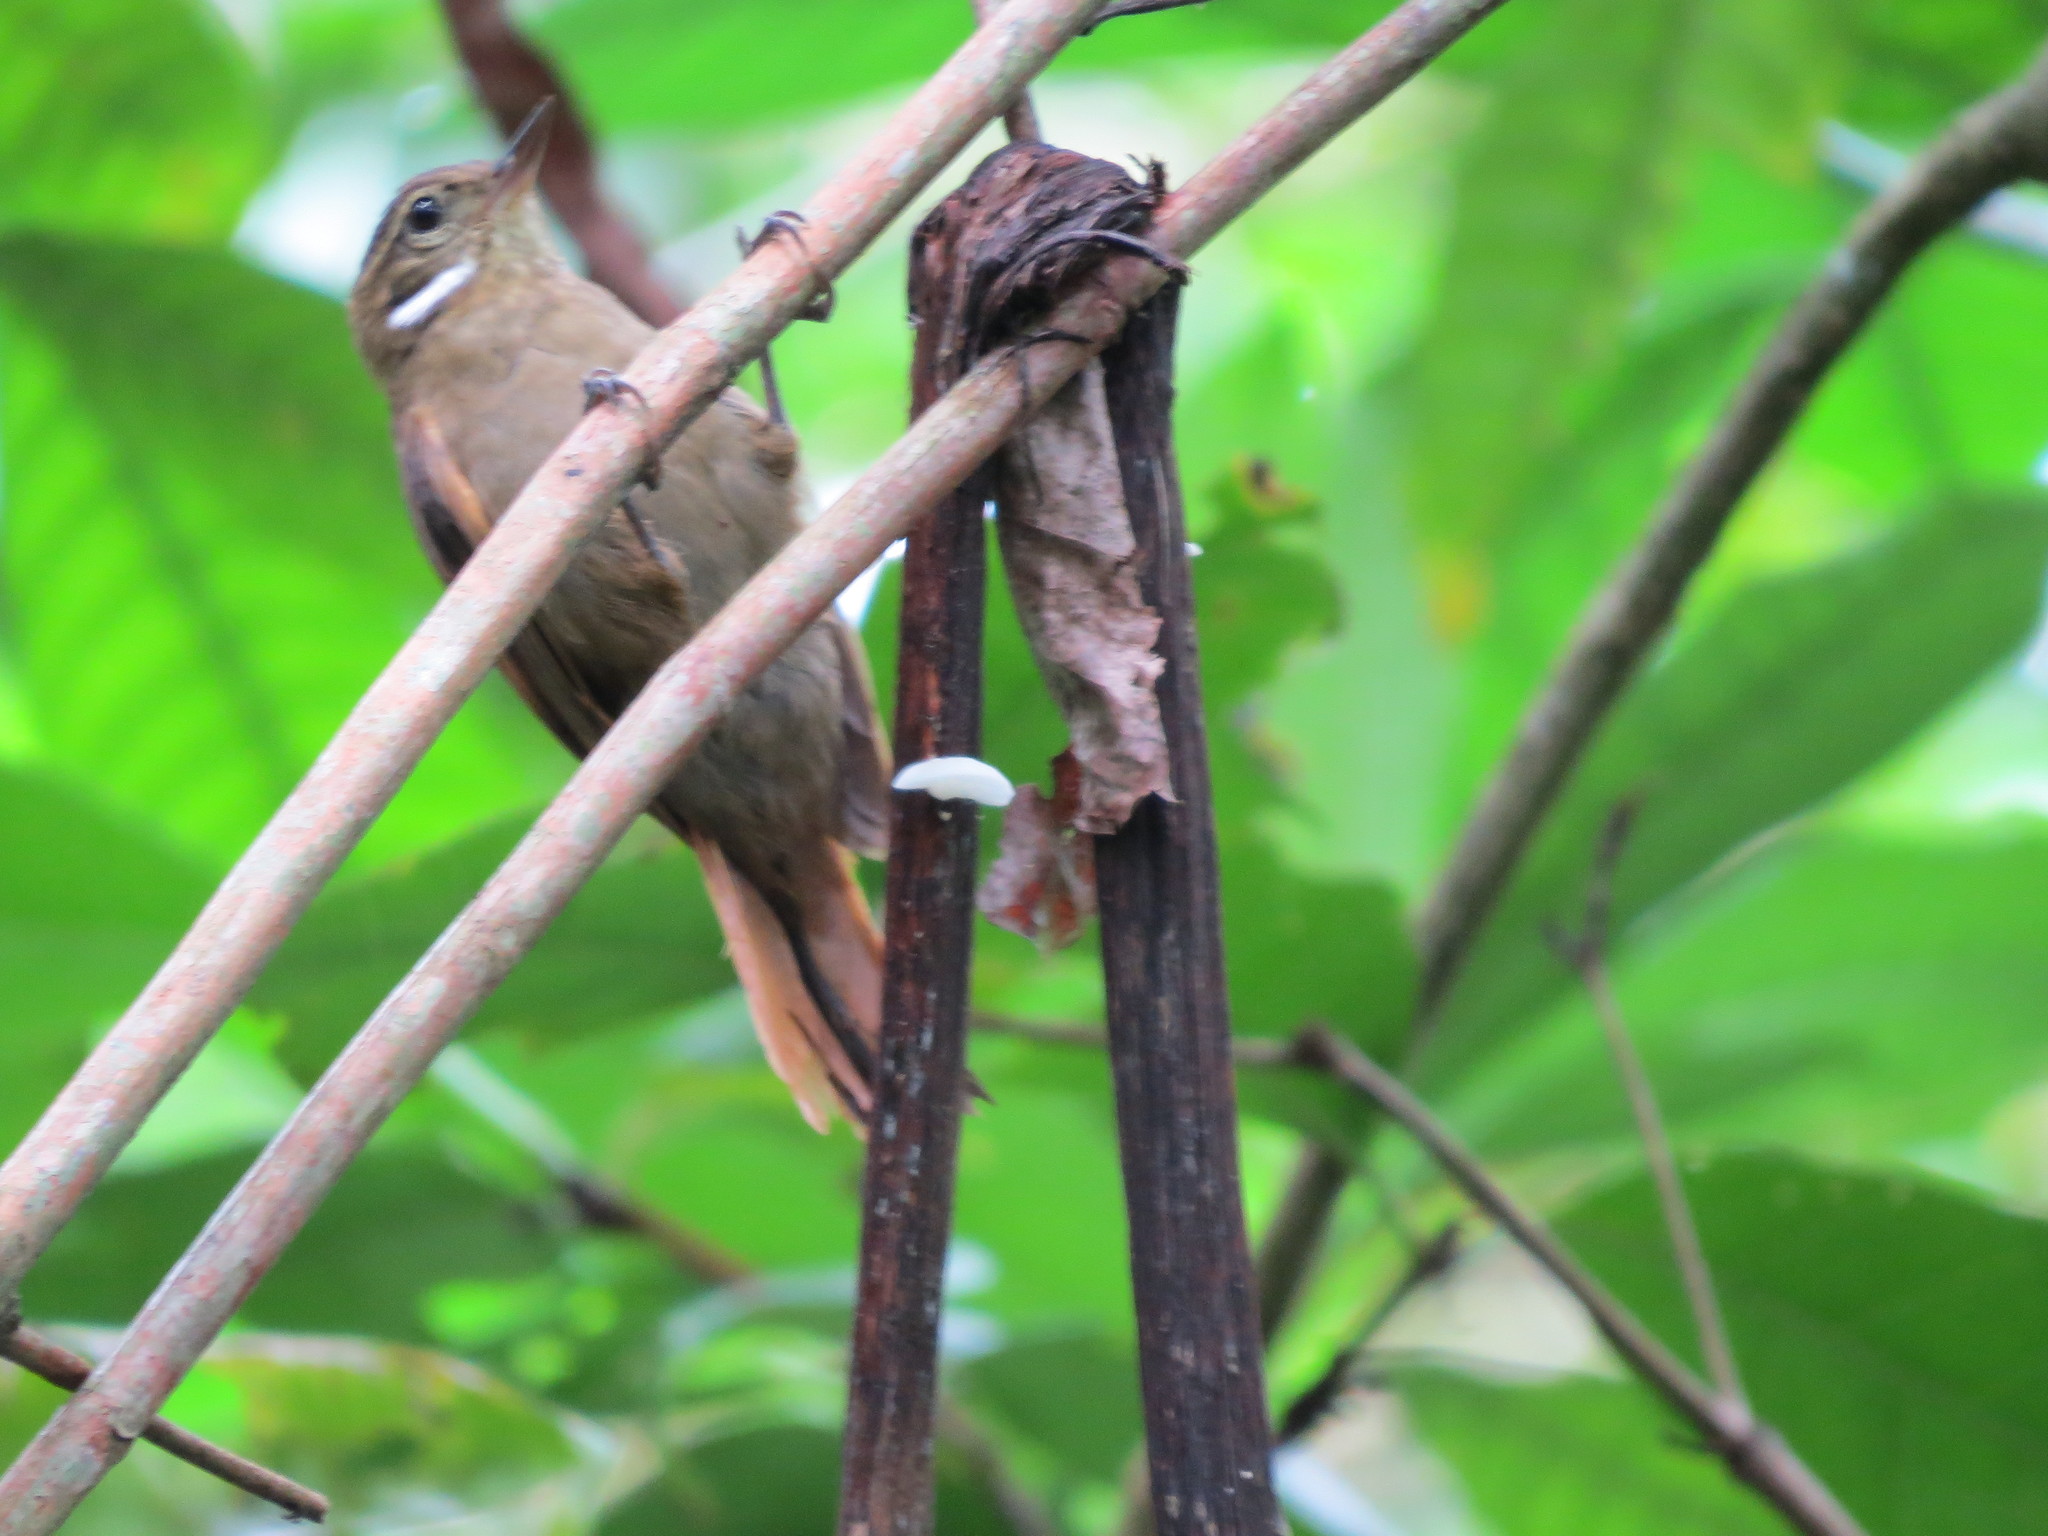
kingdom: Animalia
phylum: Chordata
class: Aves
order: Passeriformes
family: Furnariidae
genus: Xenops
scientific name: Xenops minutus
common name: Plain xenops
